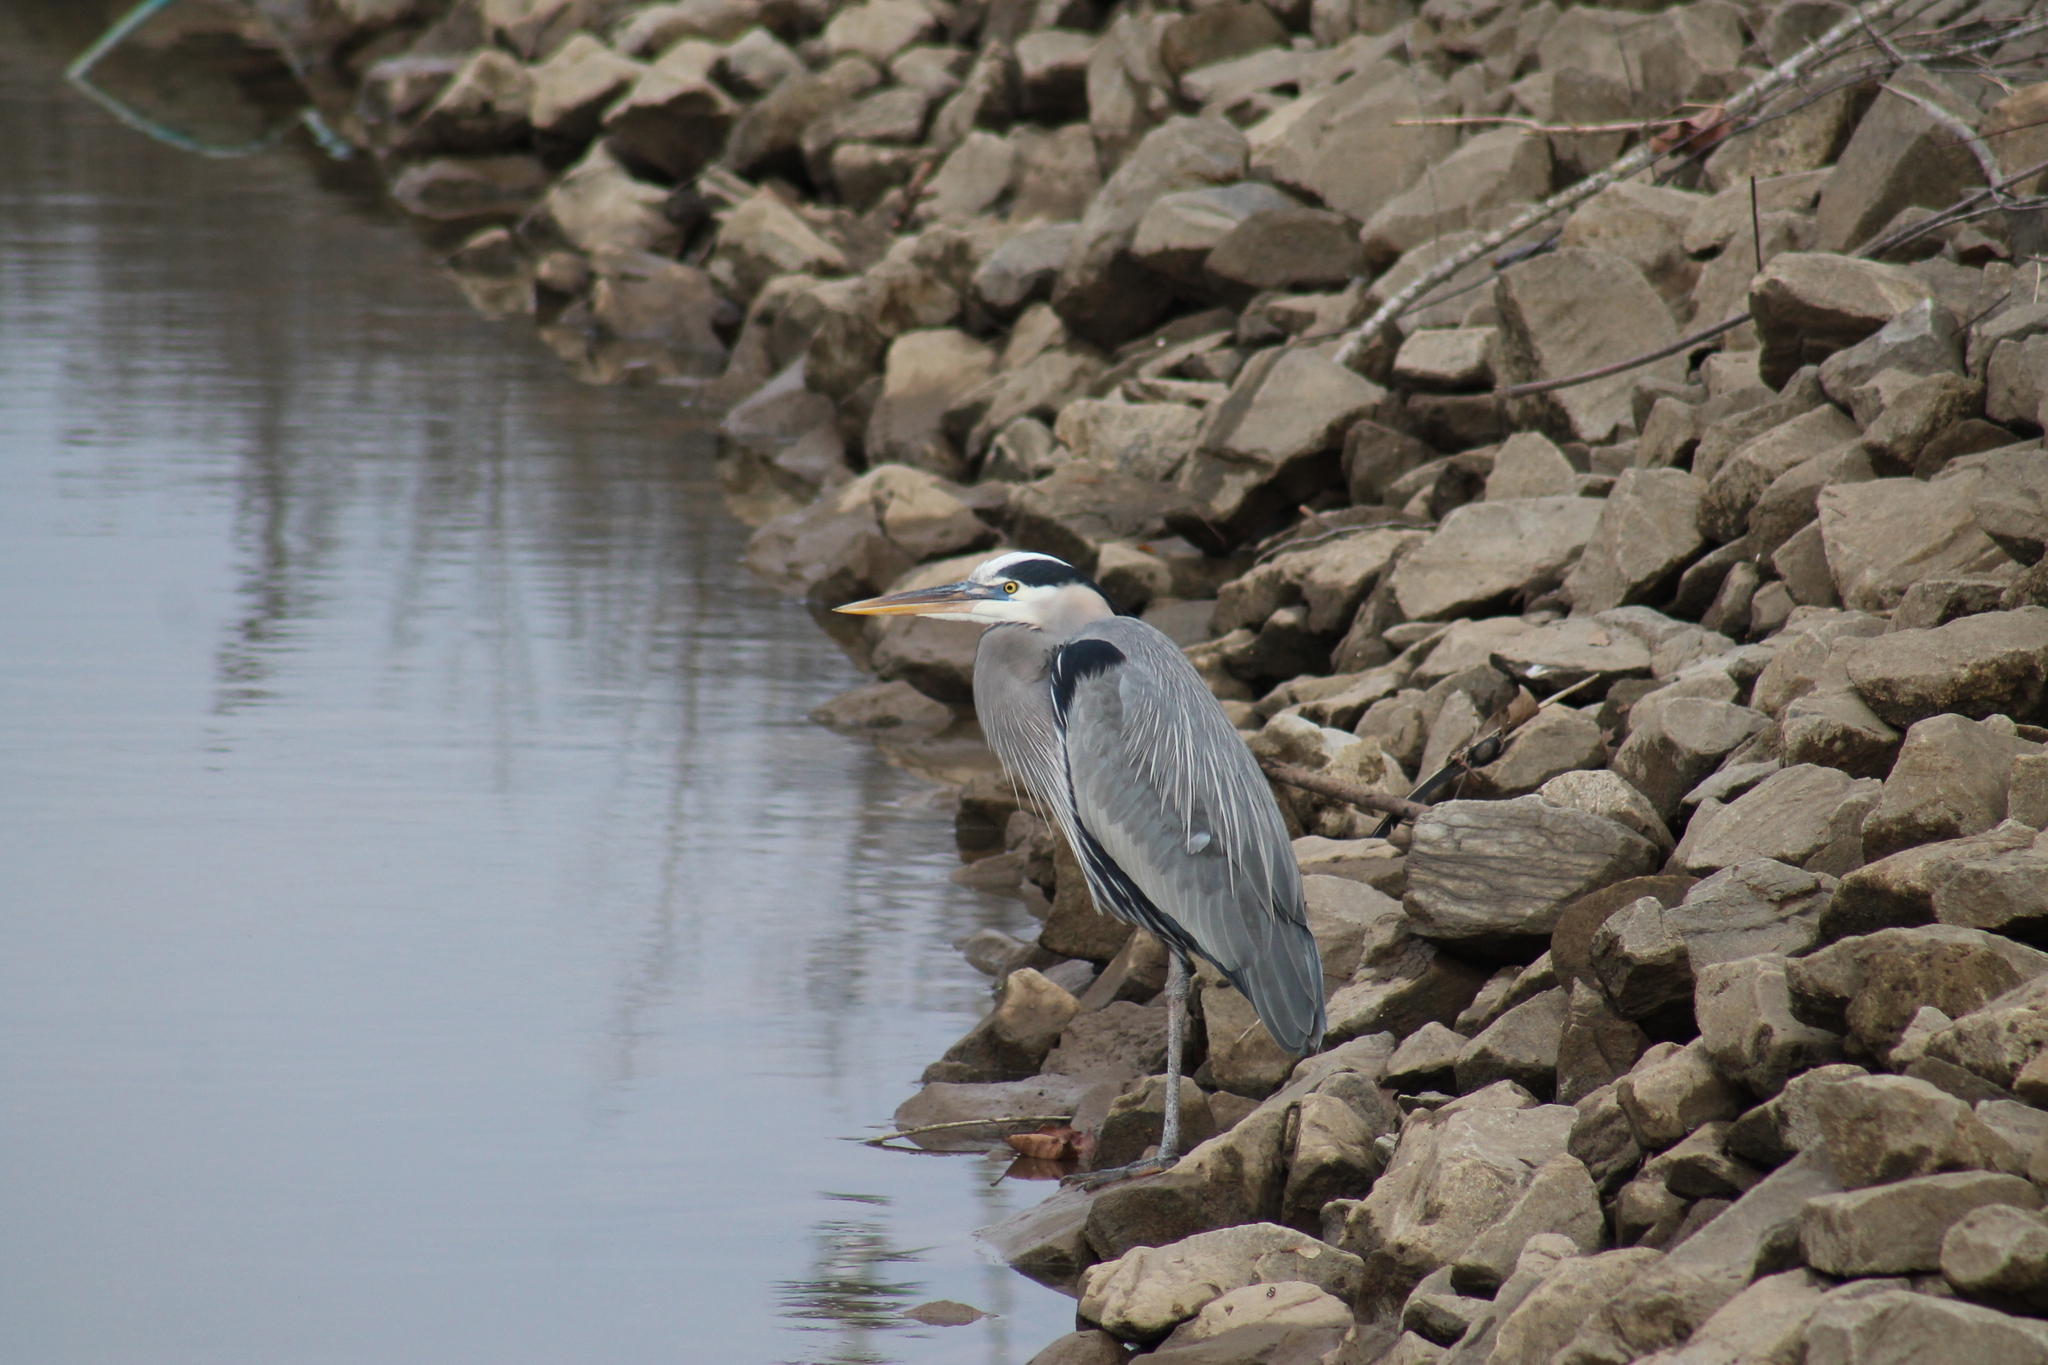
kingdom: Animalia
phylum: Chordata
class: Aves
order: Pelecaniformes
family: Ardeidae
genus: Ardea
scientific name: Ardea herodias
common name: Great blue heron
